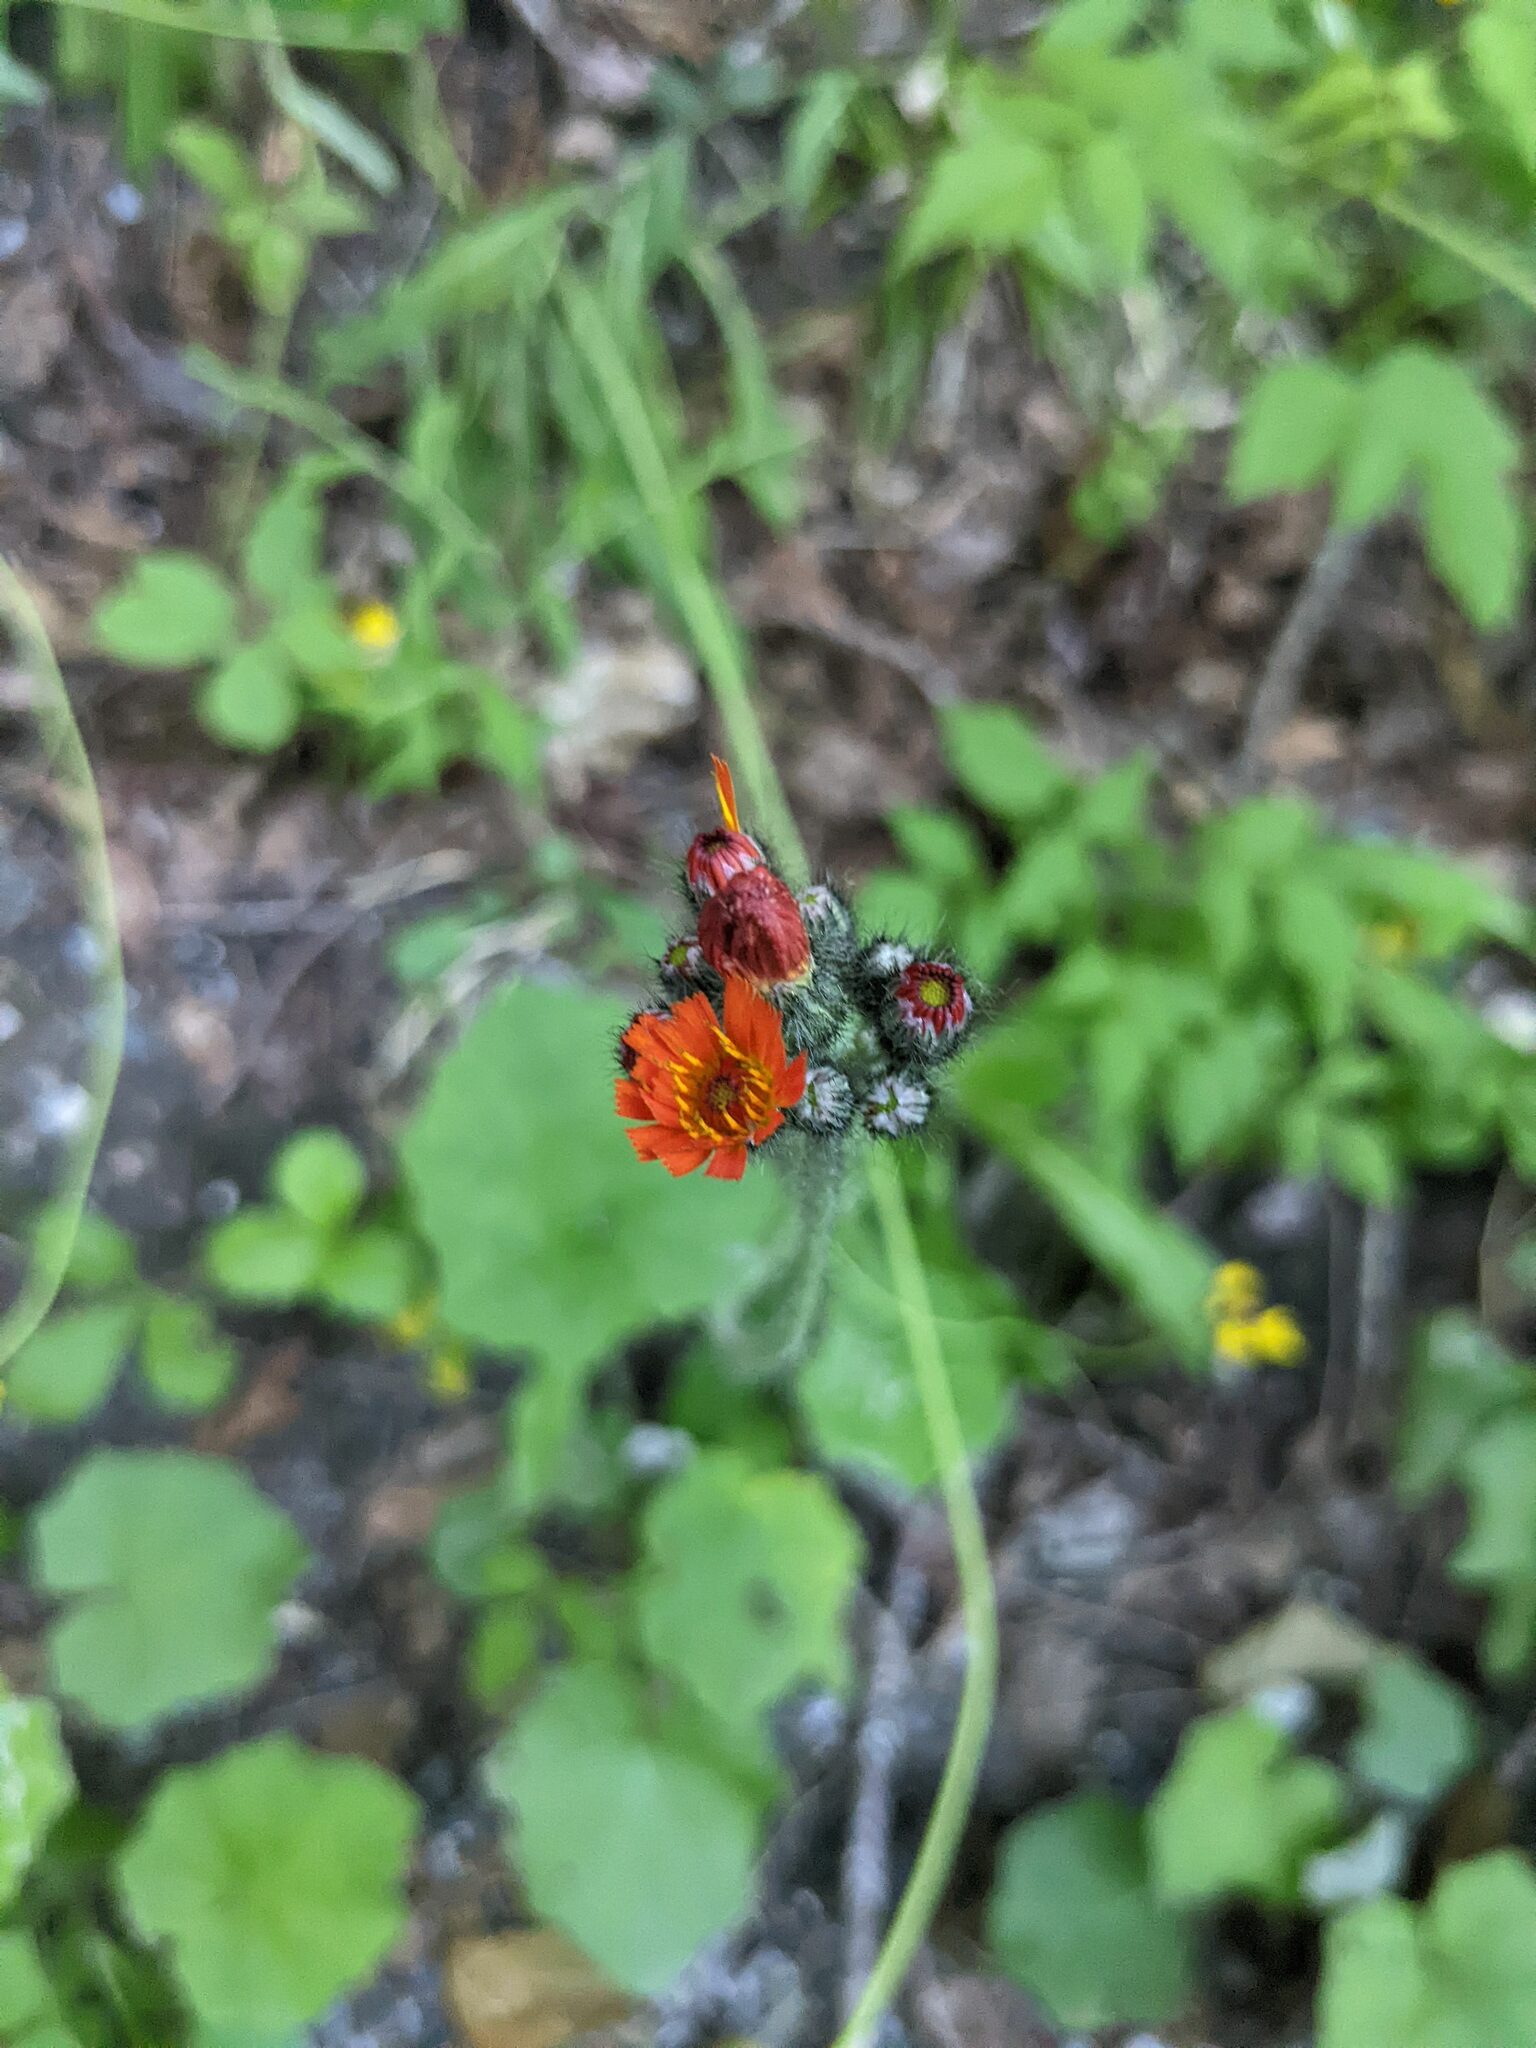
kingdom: Plantae
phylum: Tracheophyta
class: Magnoliopsida
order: Asterales
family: Asteraceae
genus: Pilosella
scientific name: Pilosella aurantiaca
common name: Fox-and-cubs
